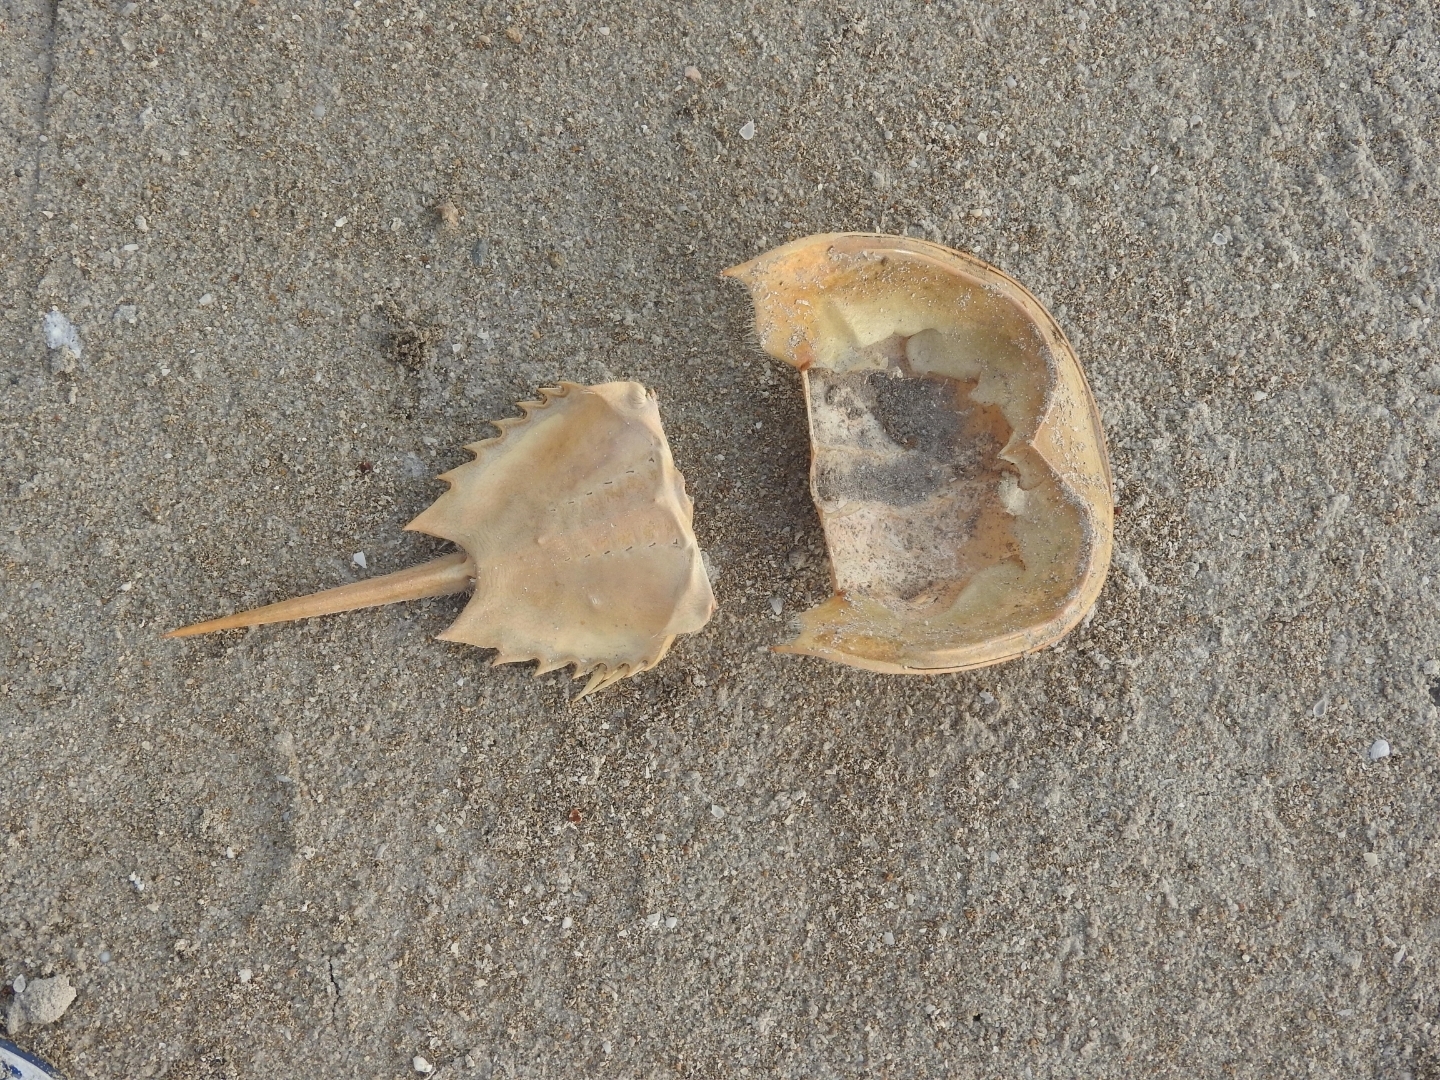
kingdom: Animalia
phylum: Arthropoda
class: Merostomata
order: Xiphosurida
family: Limulidae
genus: Limulus
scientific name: Limulus polyphemus
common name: Horseshoe crab
